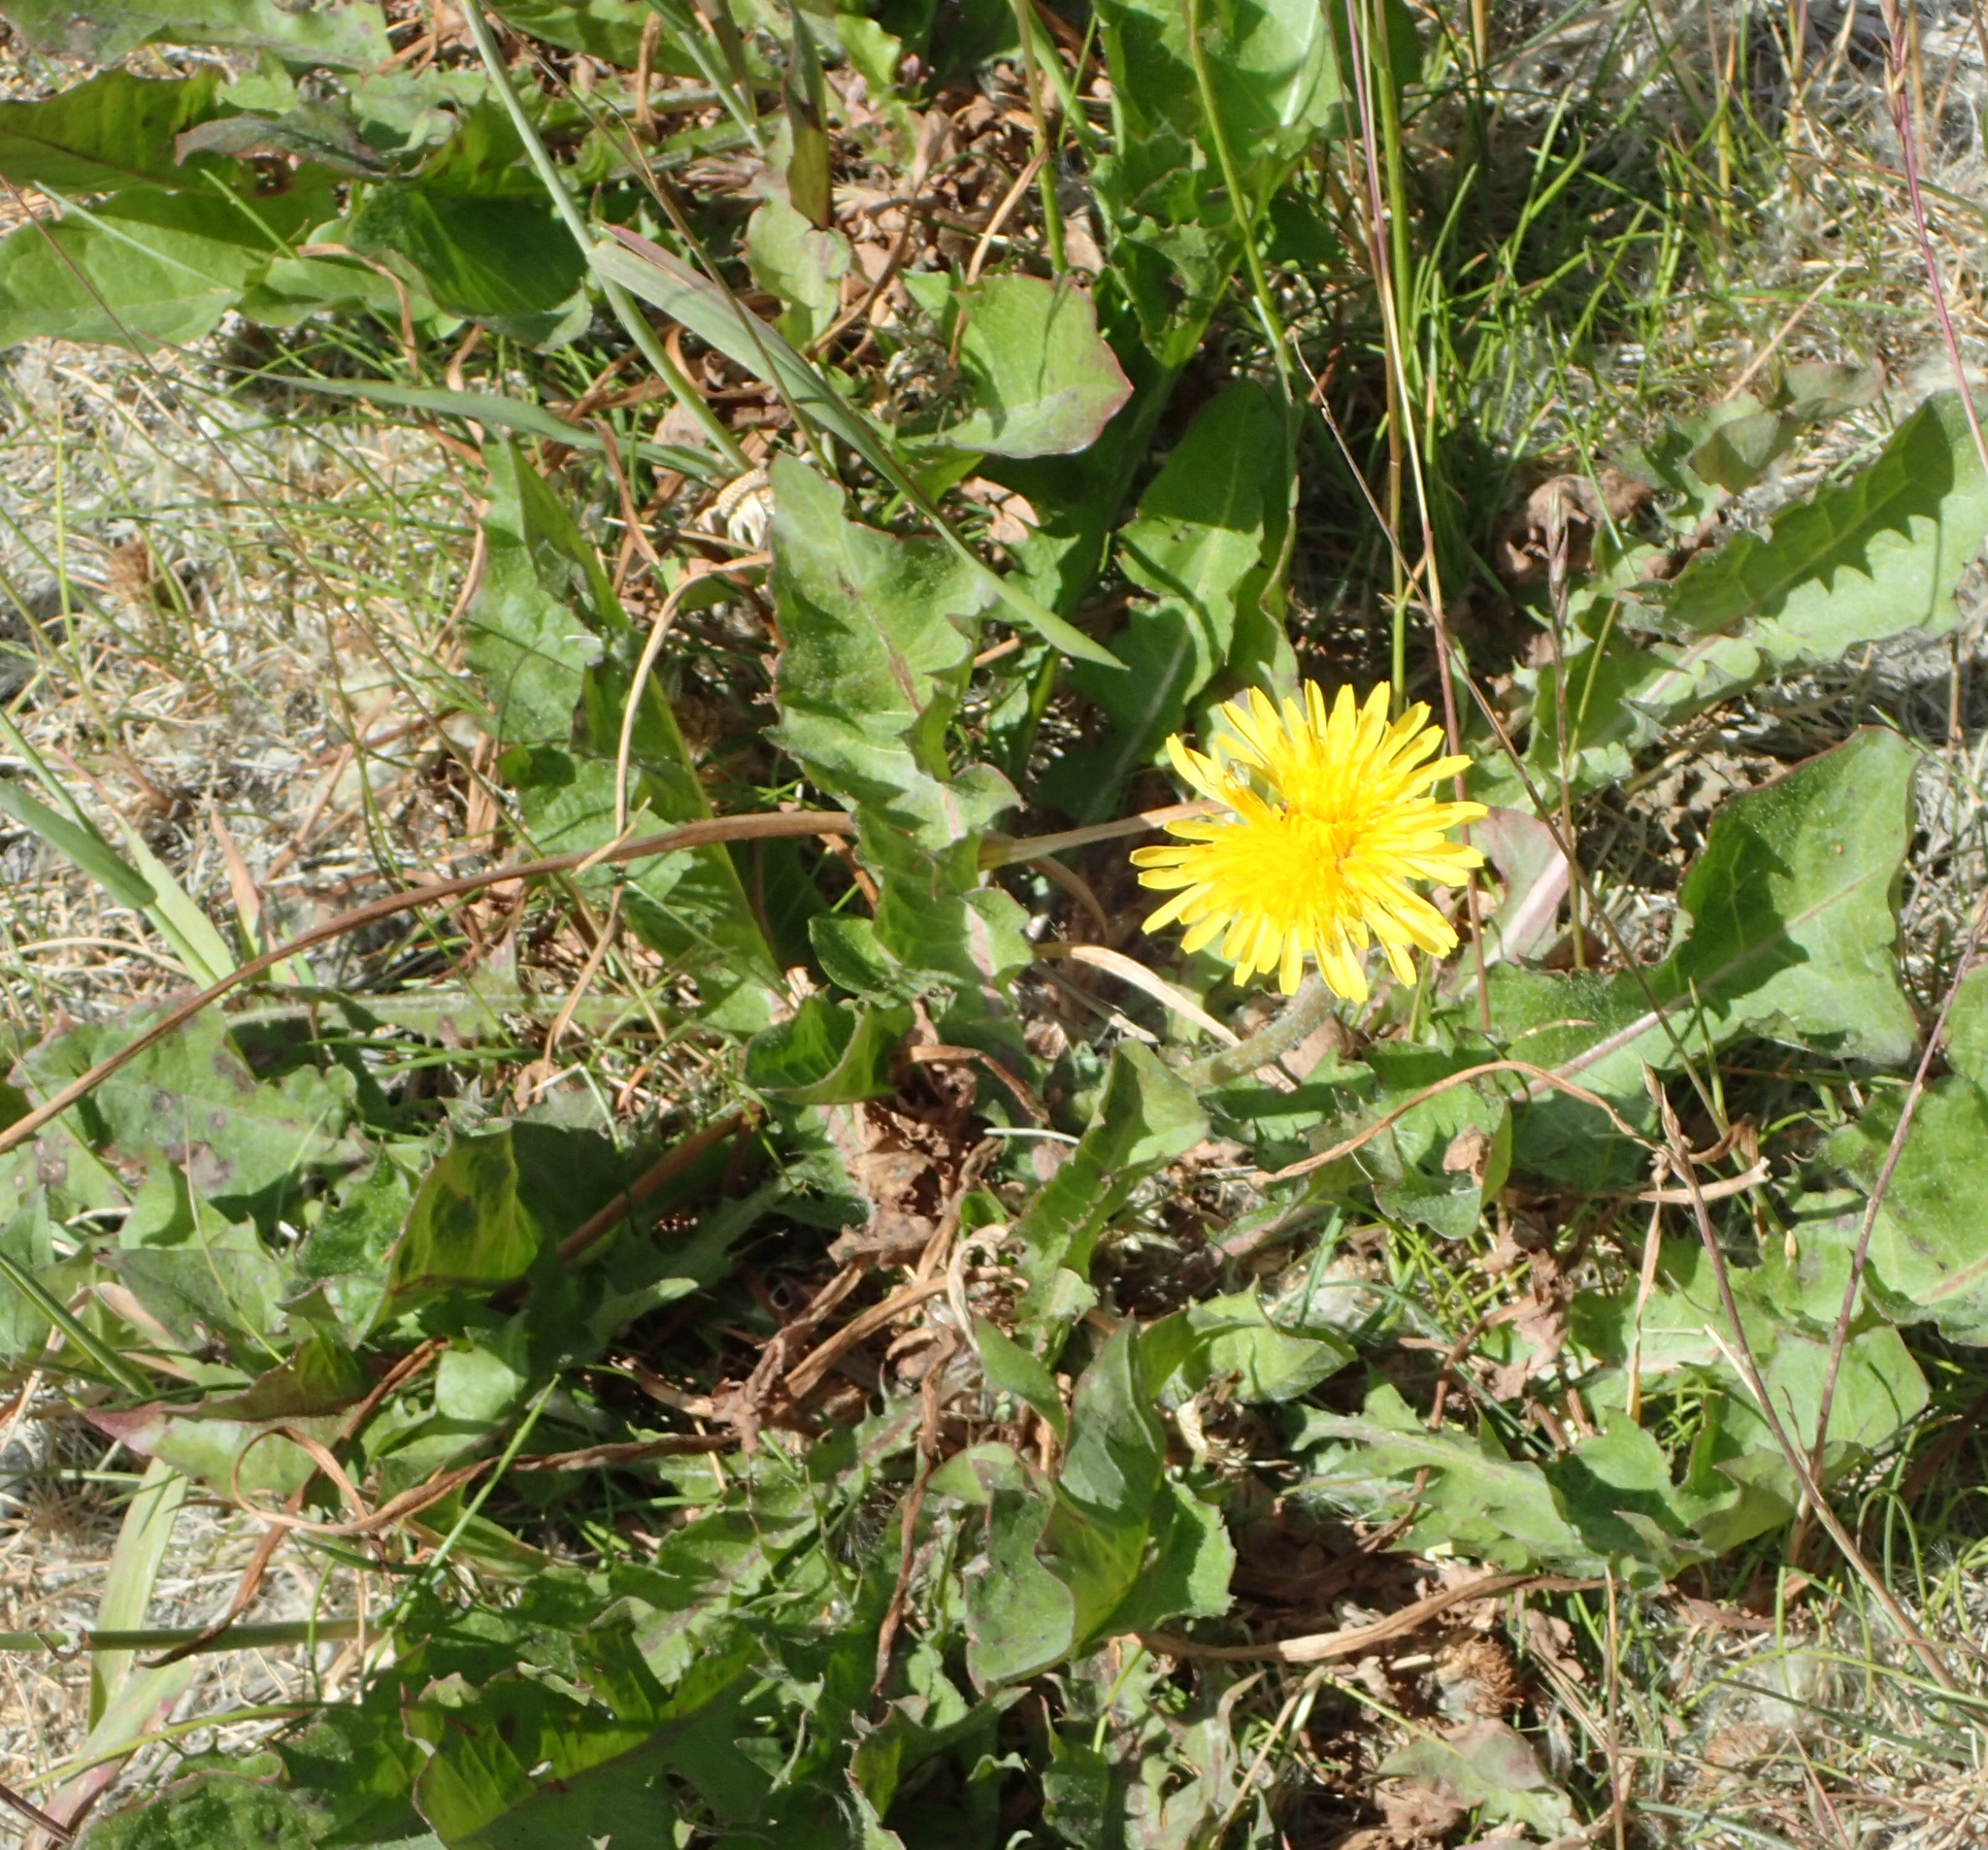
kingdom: Plantae
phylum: Tracheophyta
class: Magnoliopsida
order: Asterales
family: Asteraceae
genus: Taraxacum
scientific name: Taraxacum officinale
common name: Common dandelion
